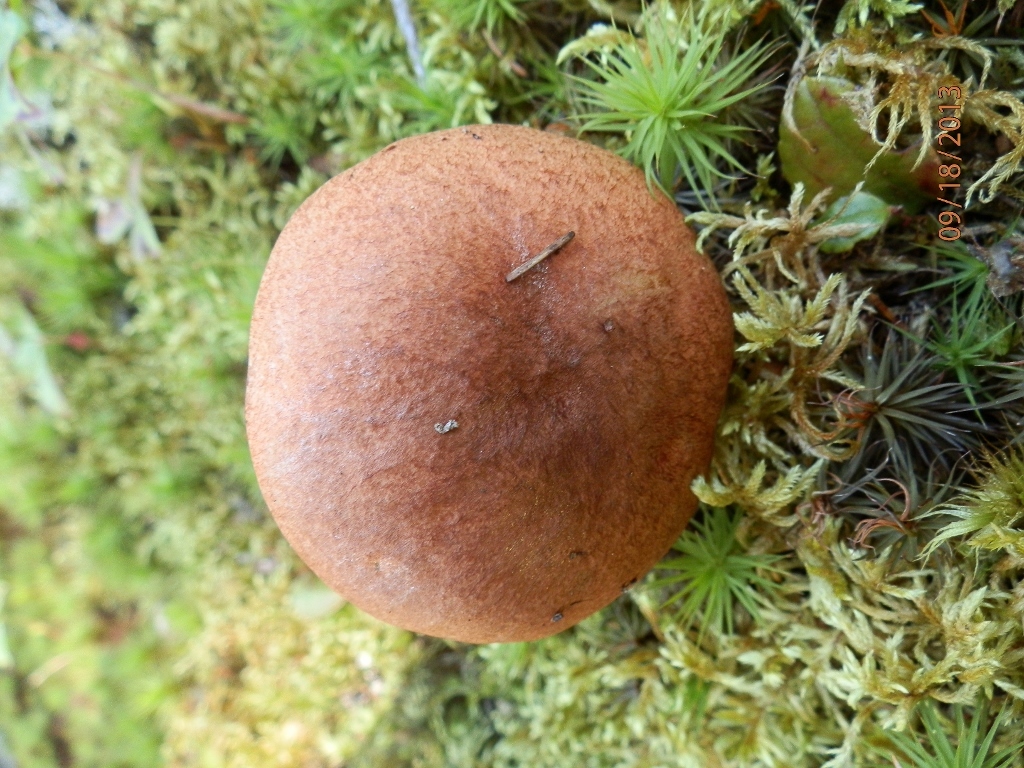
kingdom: Fungi
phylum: Basidiomycota
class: Agaricomycetes
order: Boletales
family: Boletaceae
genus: Leccinum
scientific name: Leccinum vulpinum
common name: Foxy bolete
